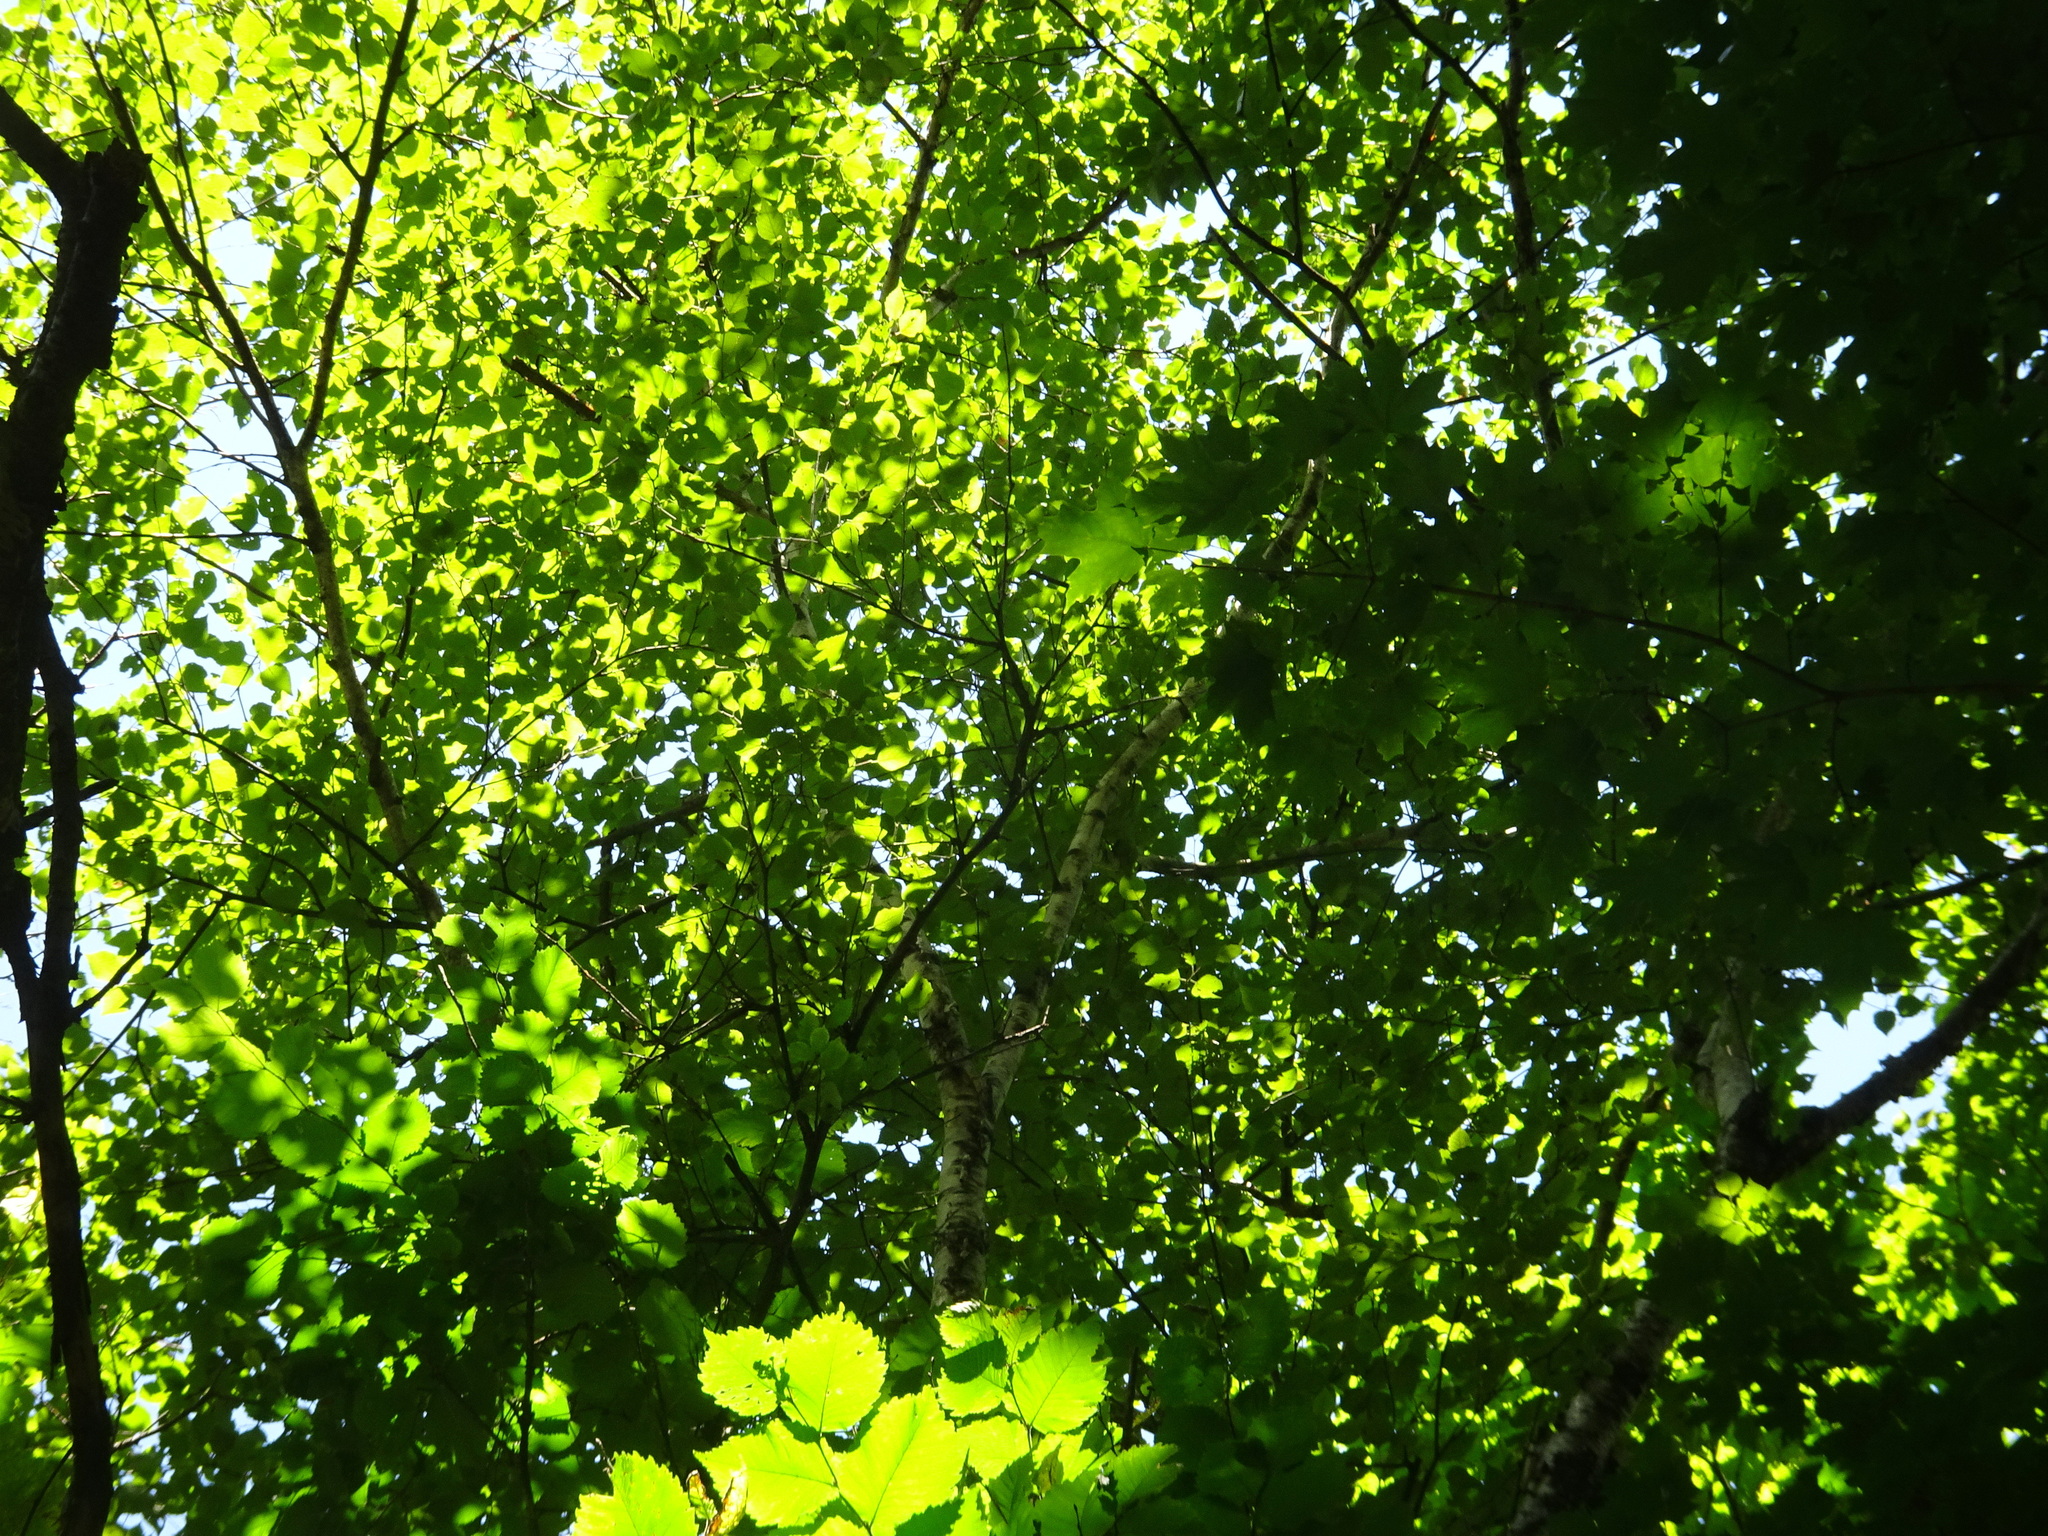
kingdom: Plantae
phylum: Tracheophyta
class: Magnoliopsida
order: Fagales
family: Betulaceae
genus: Betula
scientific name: Betula alleghaniensis
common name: Yellow birch
